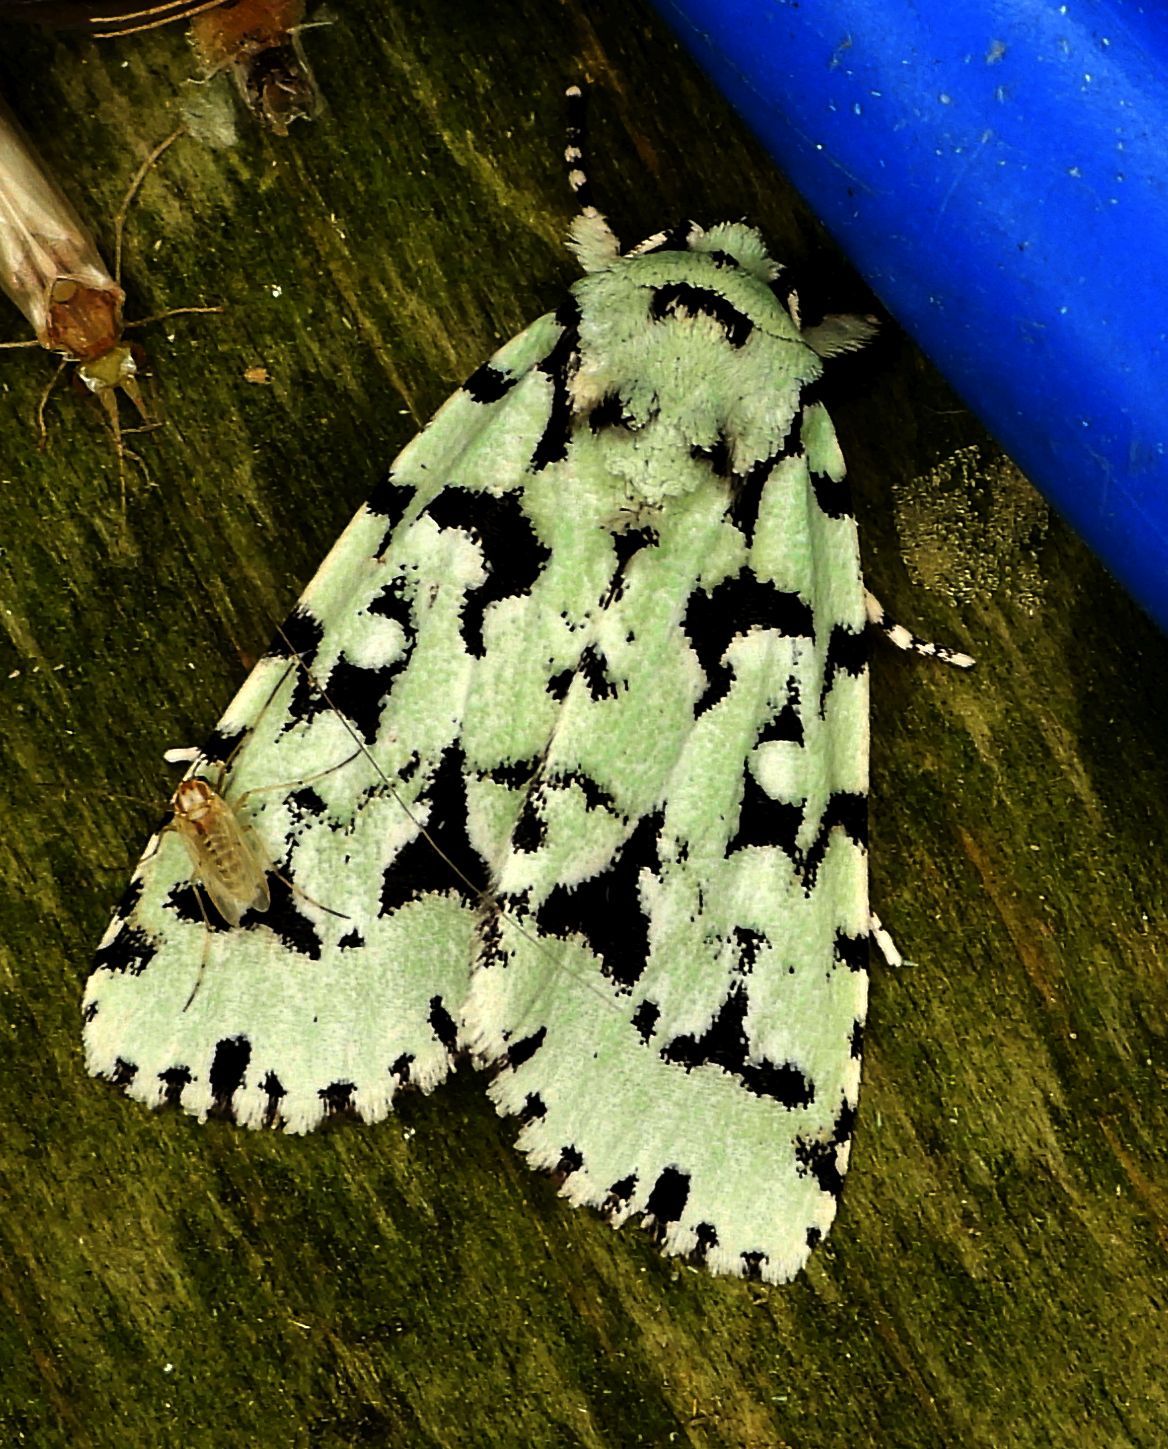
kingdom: Animalia
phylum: Arthropoda
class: Insecta
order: Lepidoptera
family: Noctuidae
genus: Acronicta
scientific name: Acronicta fallax
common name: Green marvel
